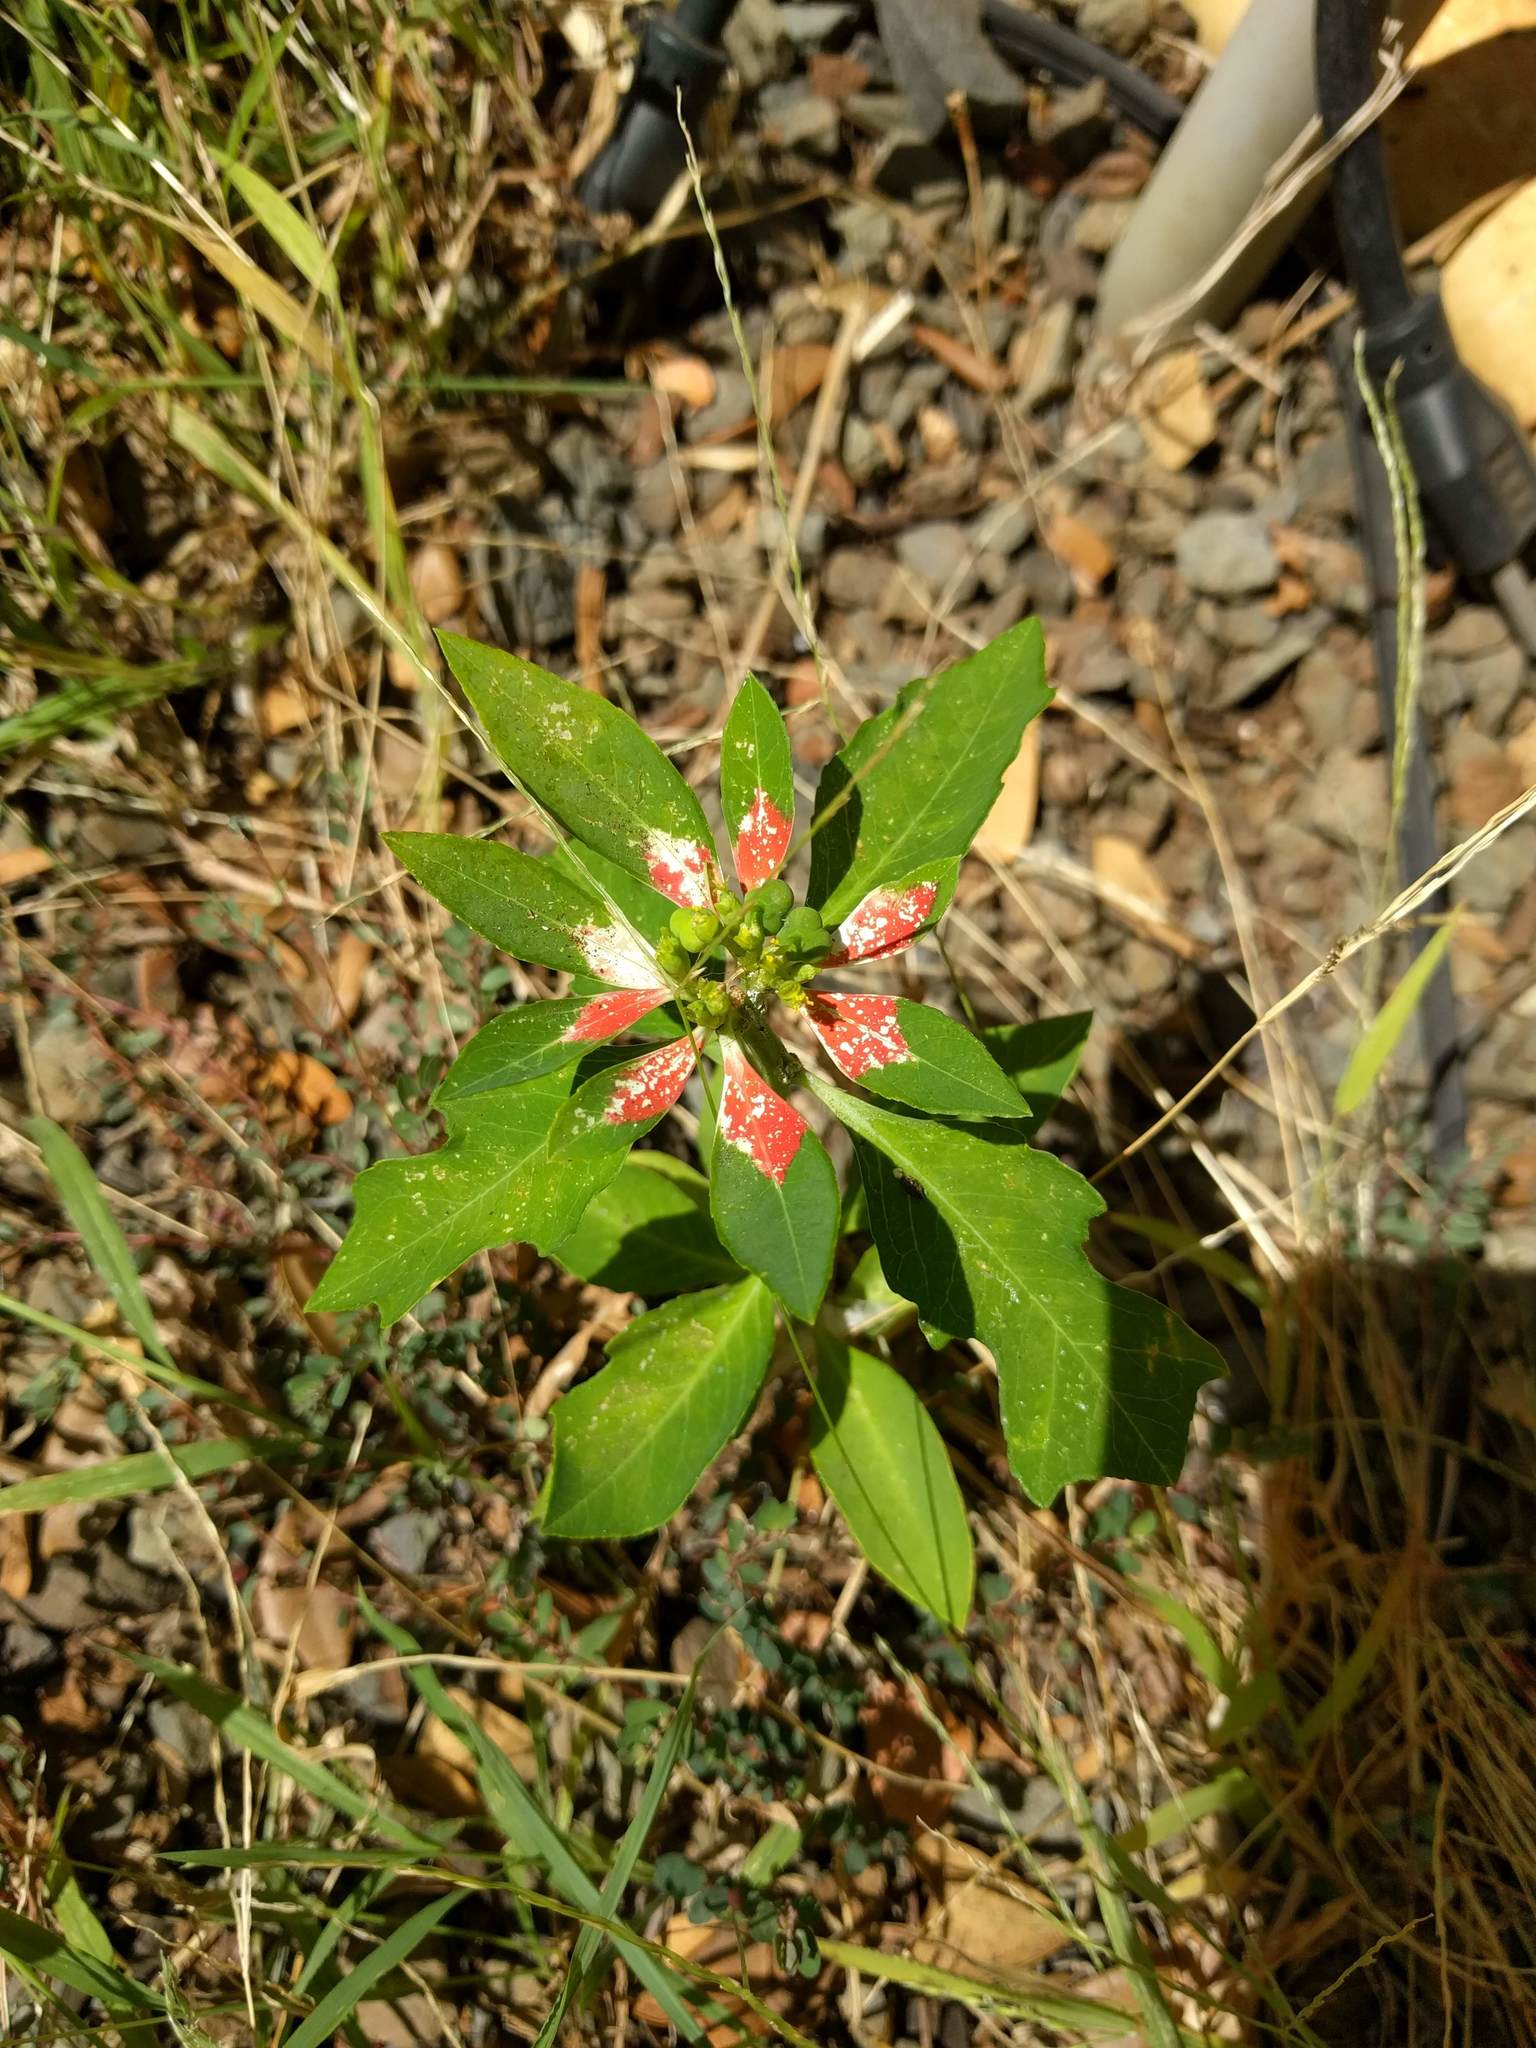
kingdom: Plantae
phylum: Tracheophyta
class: Magnoliopsida
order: Malpighiales
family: Euphorbiaceae
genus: Euphorbia
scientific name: Euphorbia heterophylla
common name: Mexican fireplant
